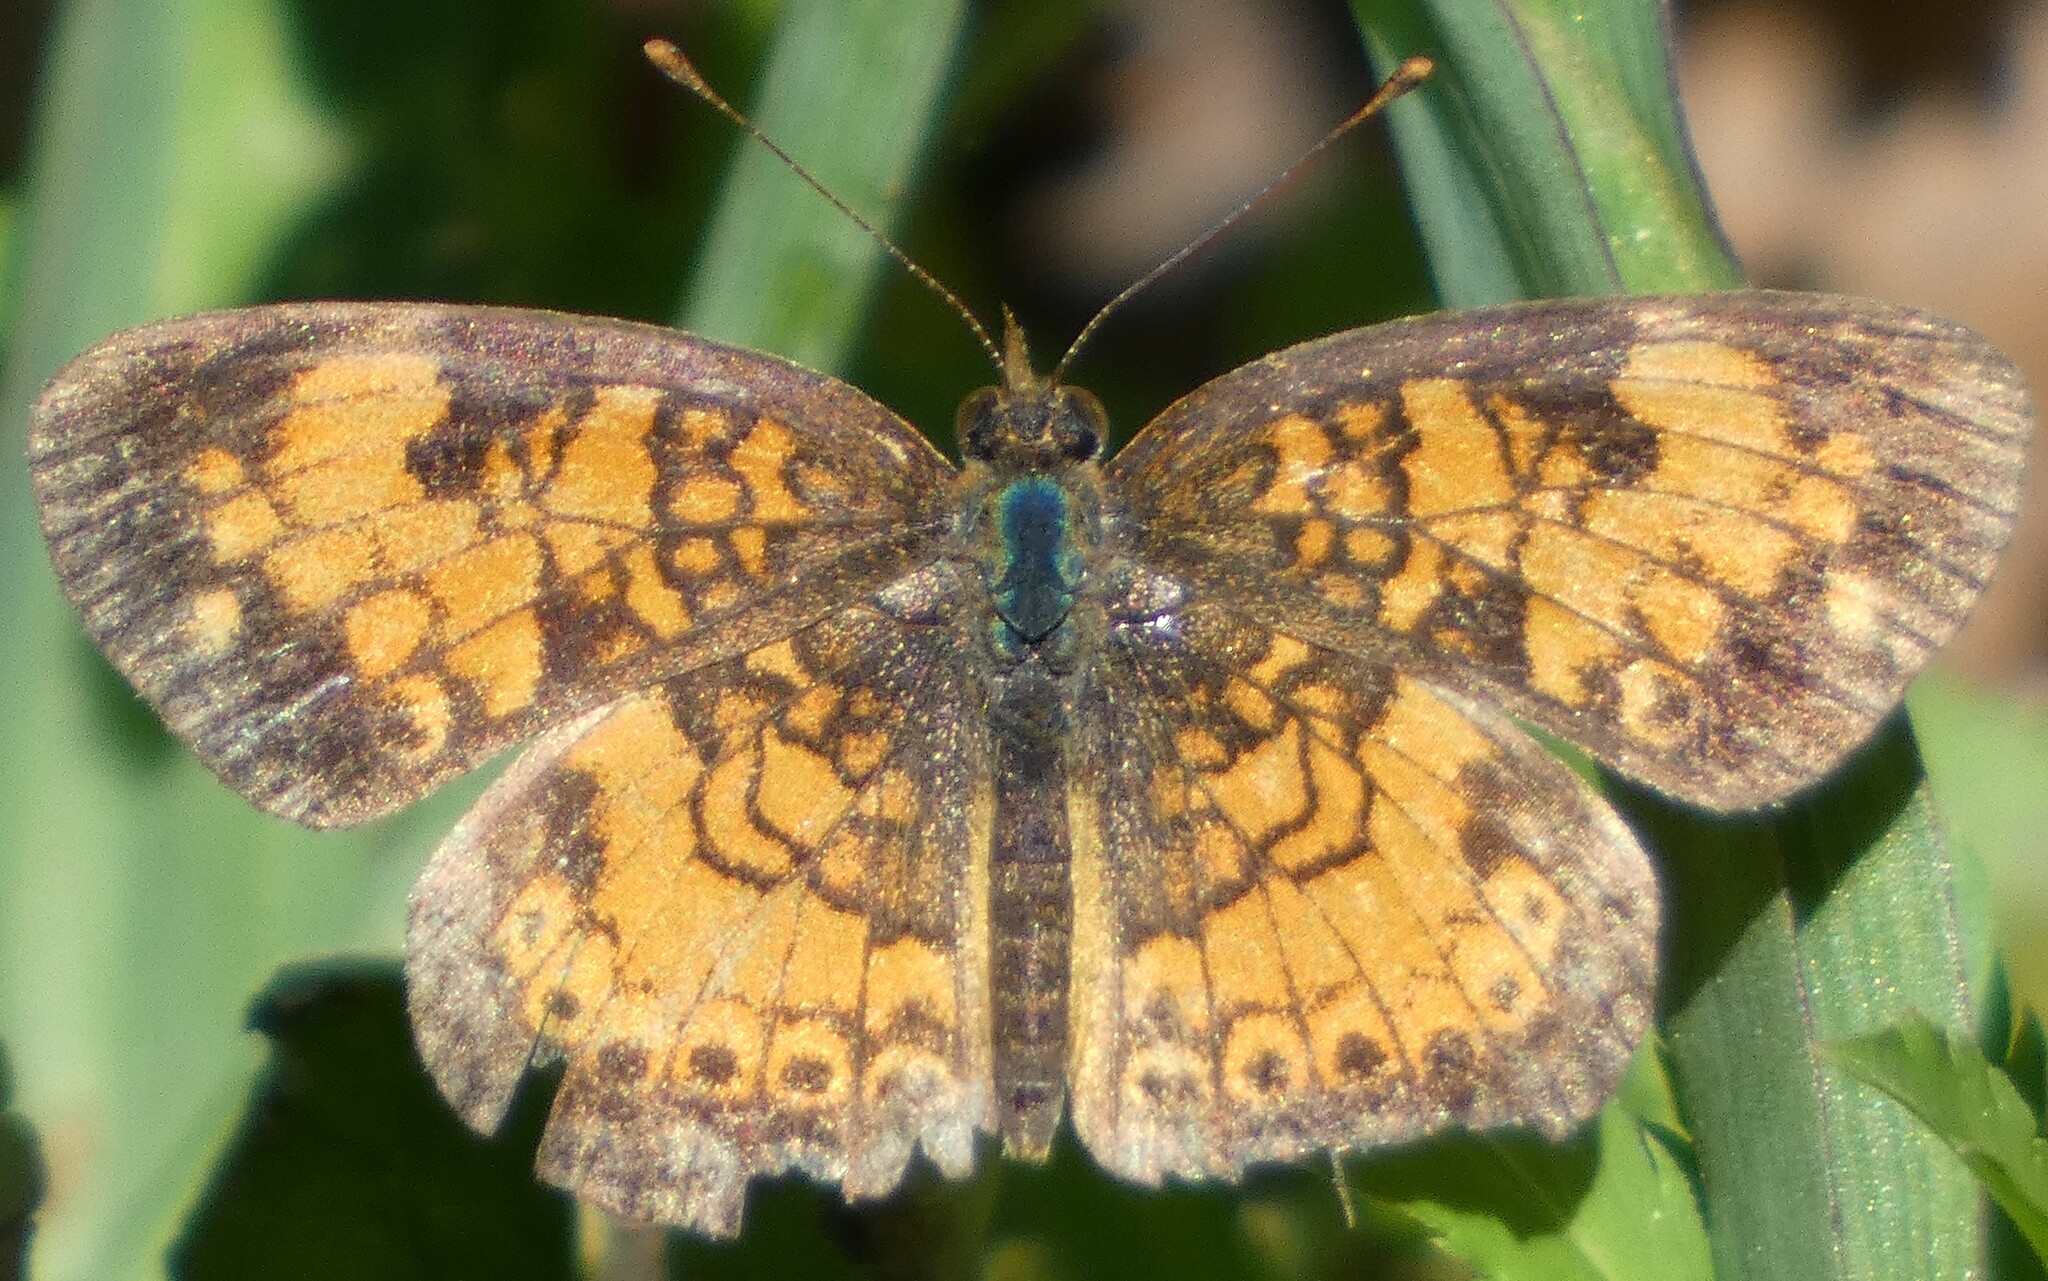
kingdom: Animalia
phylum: Arthropoda
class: Insecta
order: Lepidoptera
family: Nymphalidae
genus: Phyciodes
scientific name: Phyciodes tharos
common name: Pearl crescent
